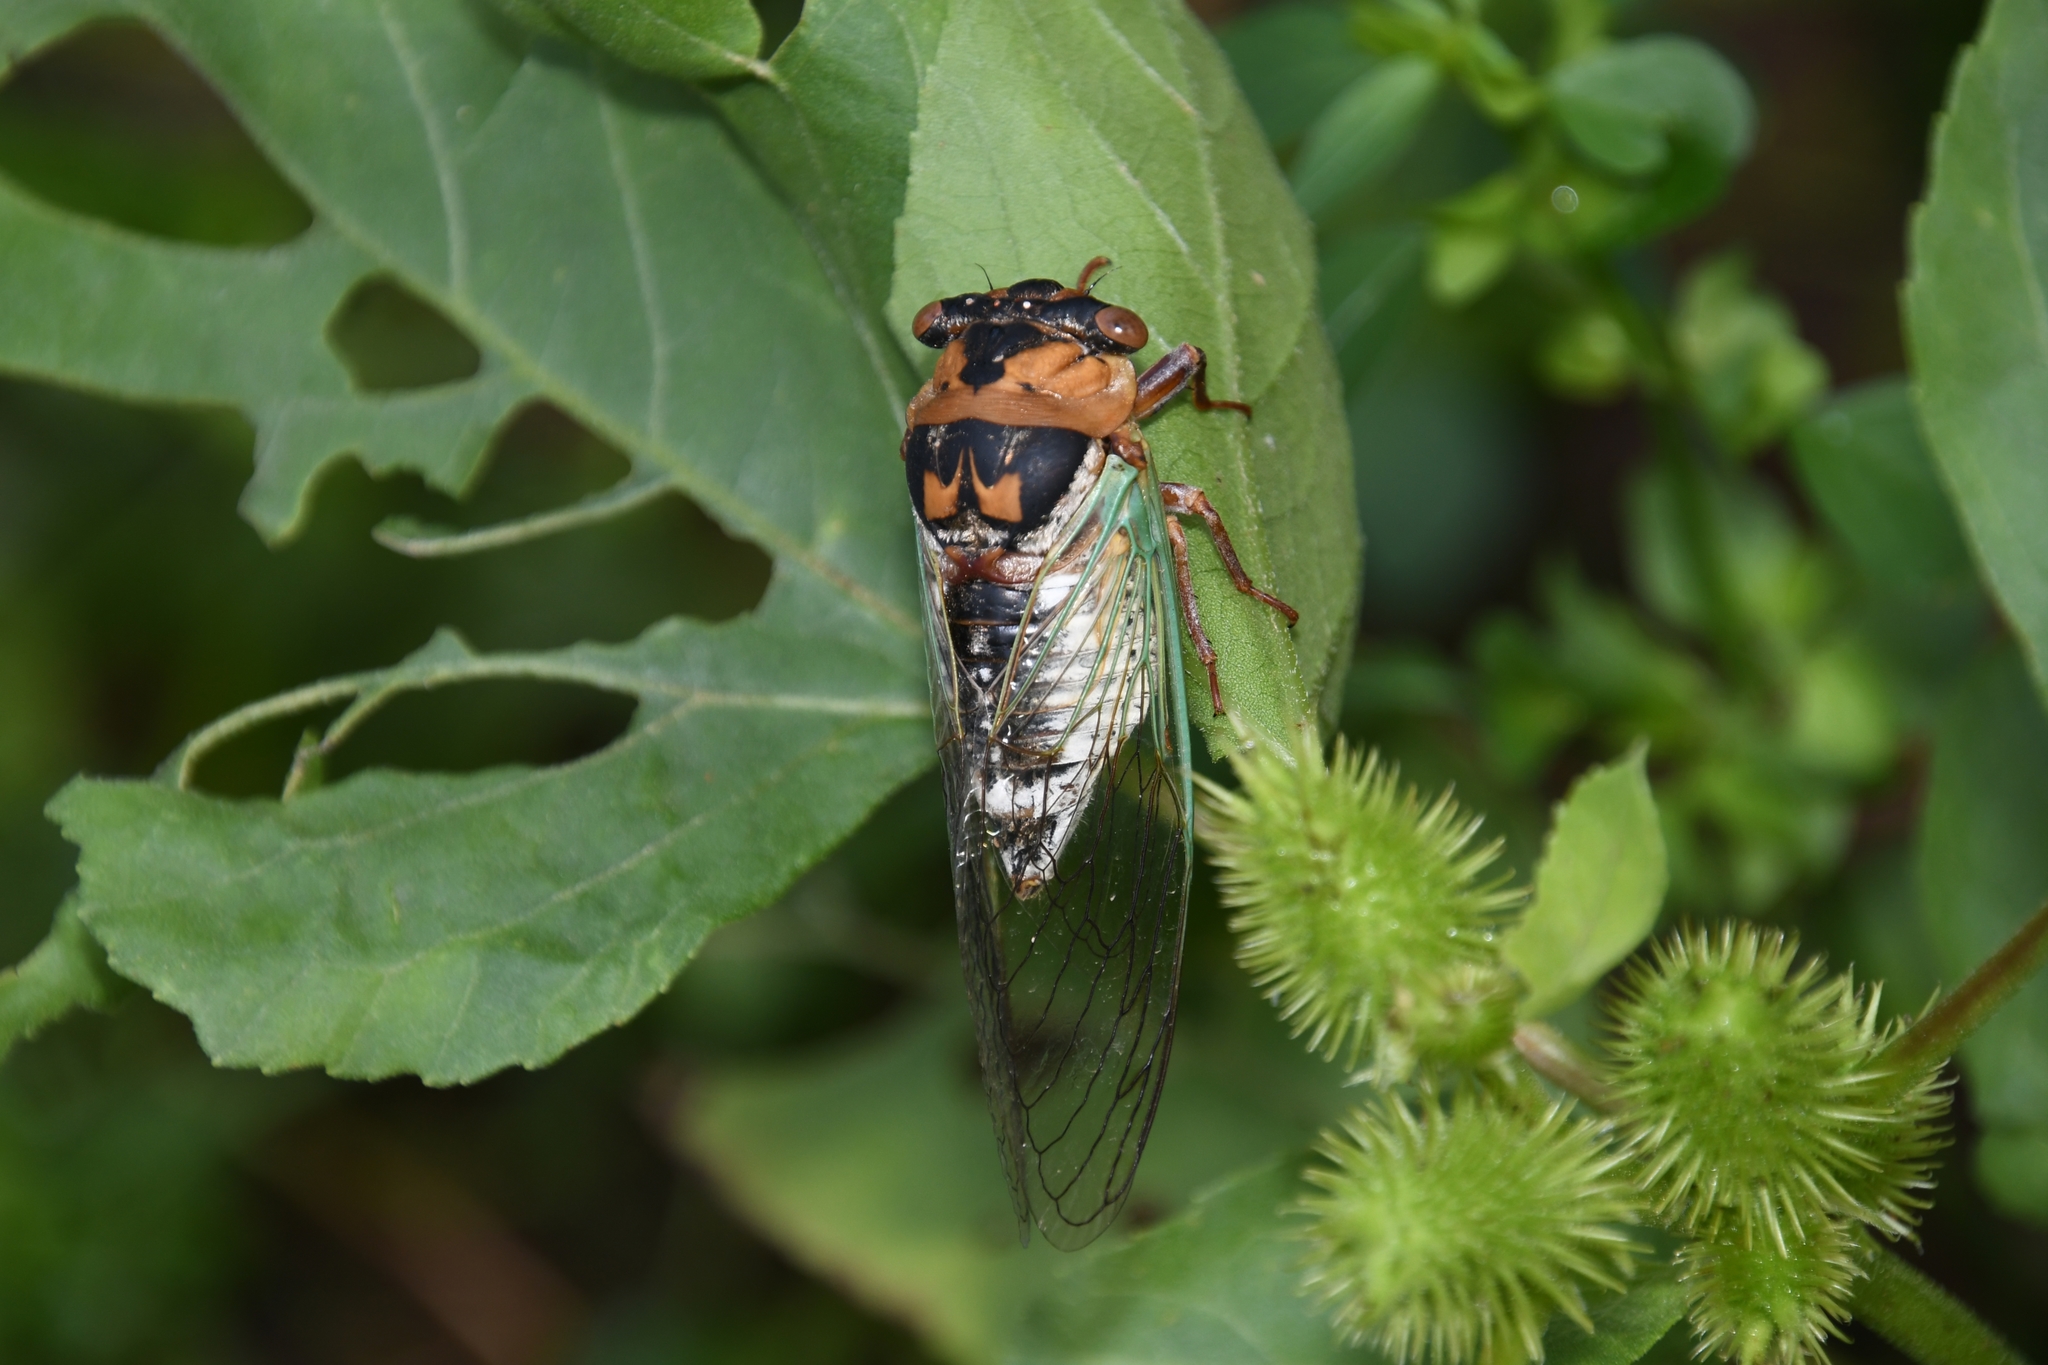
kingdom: Animalia
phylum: Arthropoda
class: Insecta
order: Hemiptera
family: Cicadidae
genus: Megatibicen
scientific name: Megatibicen cultriformis
